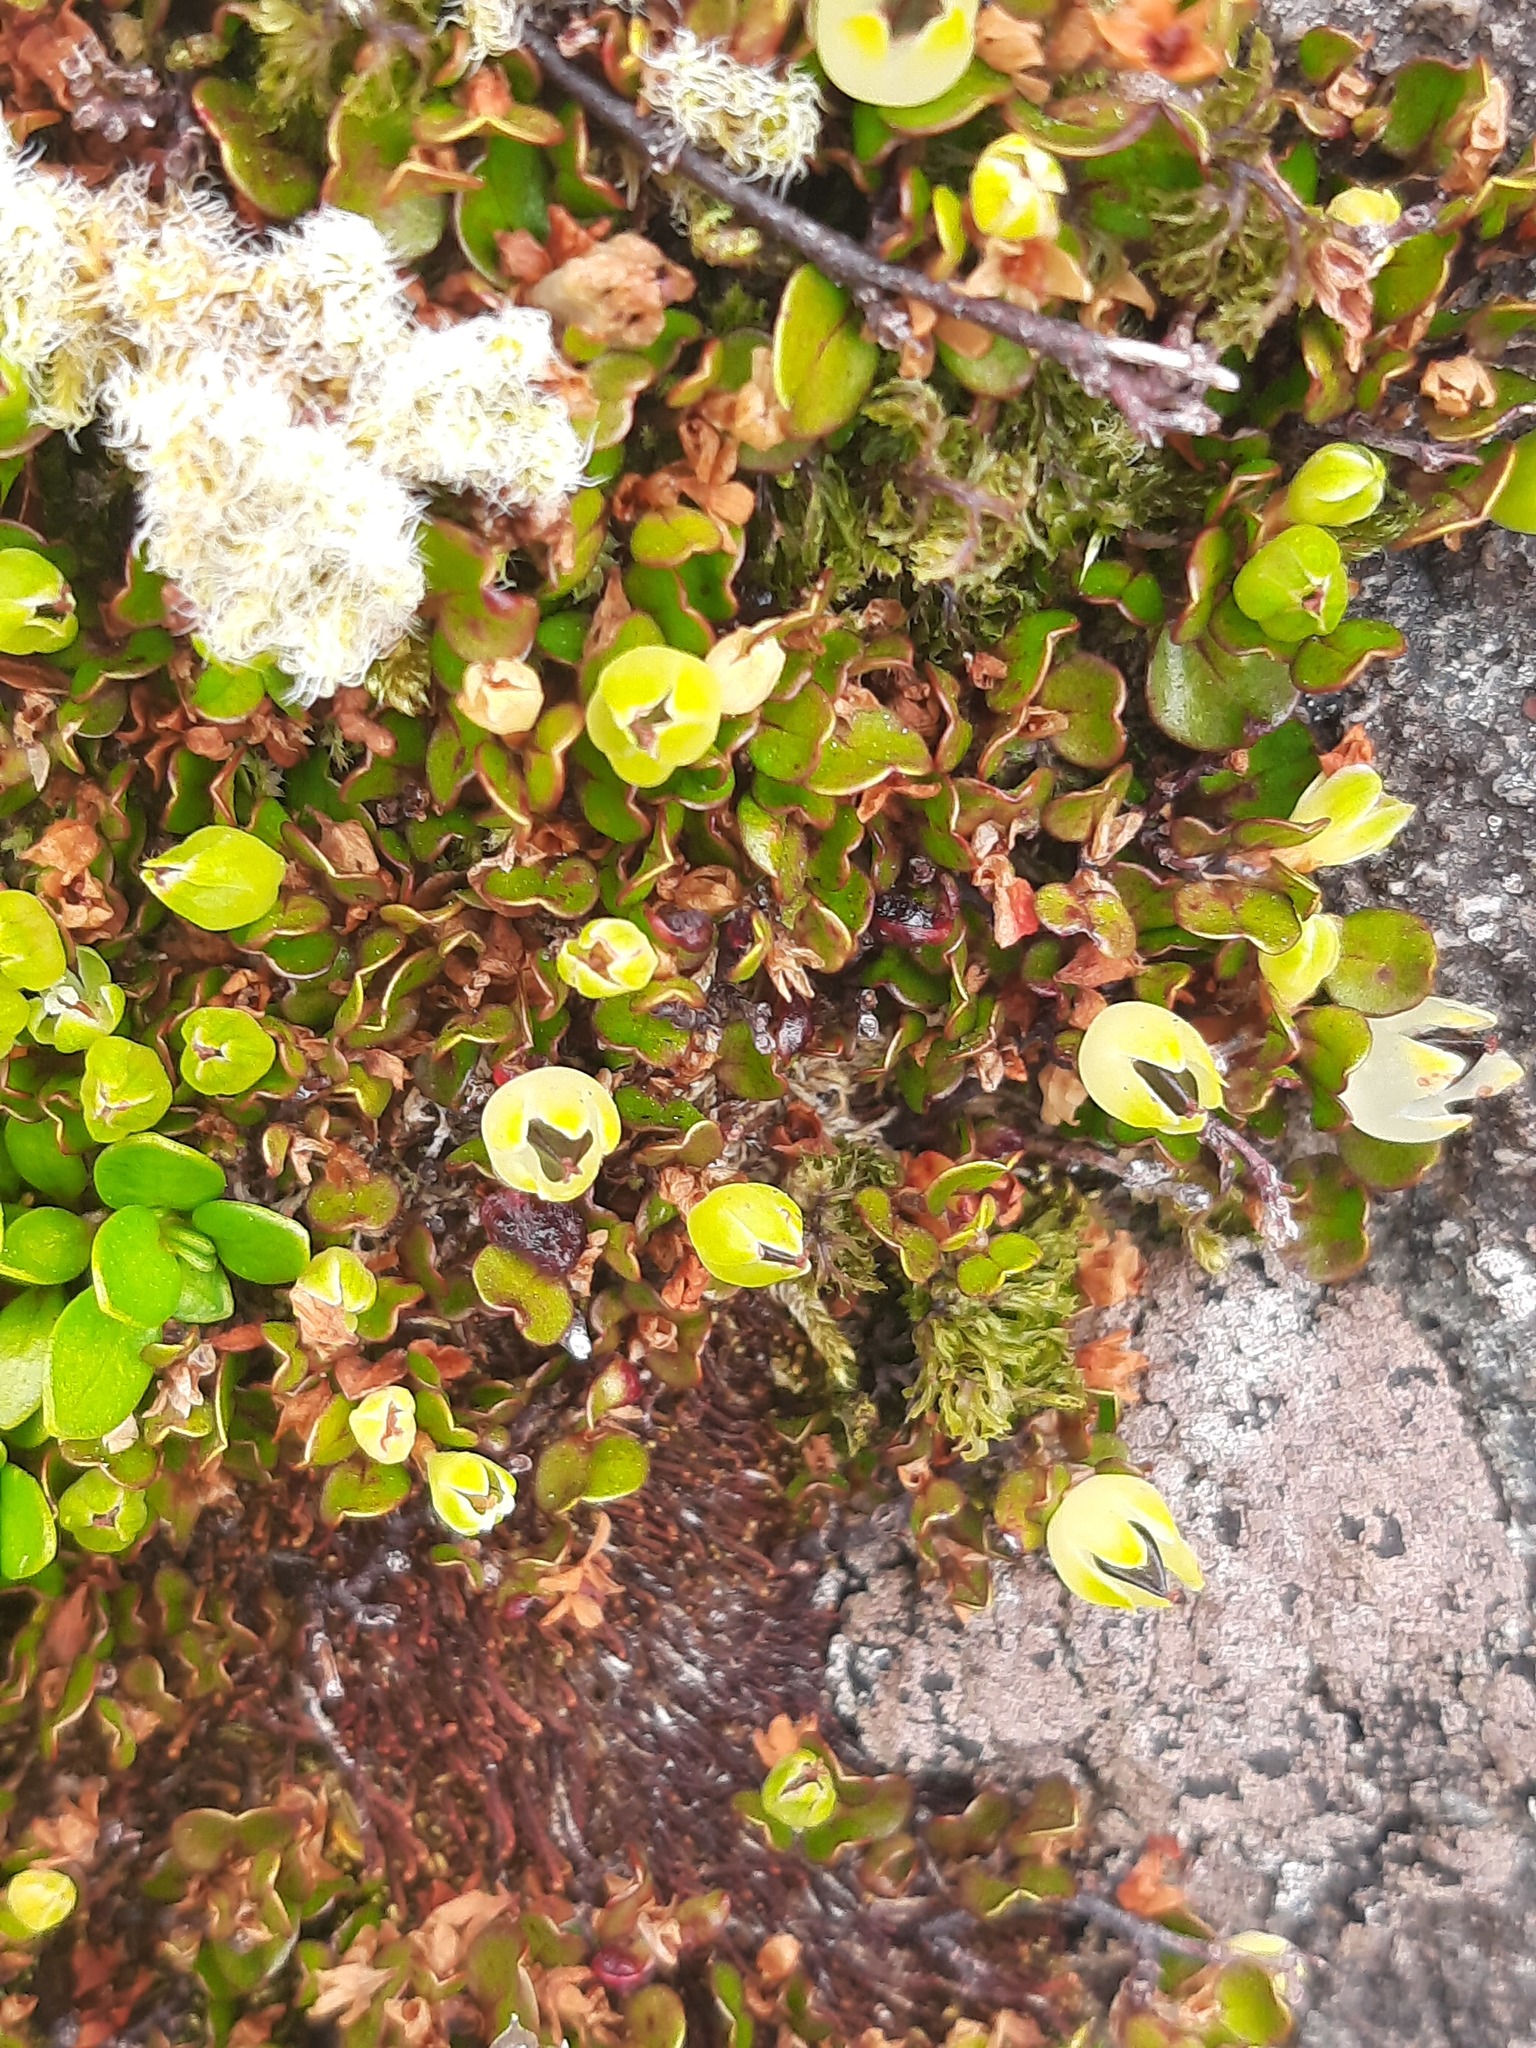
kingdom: Plantae
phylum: Tracheophyta
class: Magnoliopsida
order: Caryophyllales
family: Polygonaceae
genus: Muehlenbeckia
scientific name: Muehlenbeckia axillaris
